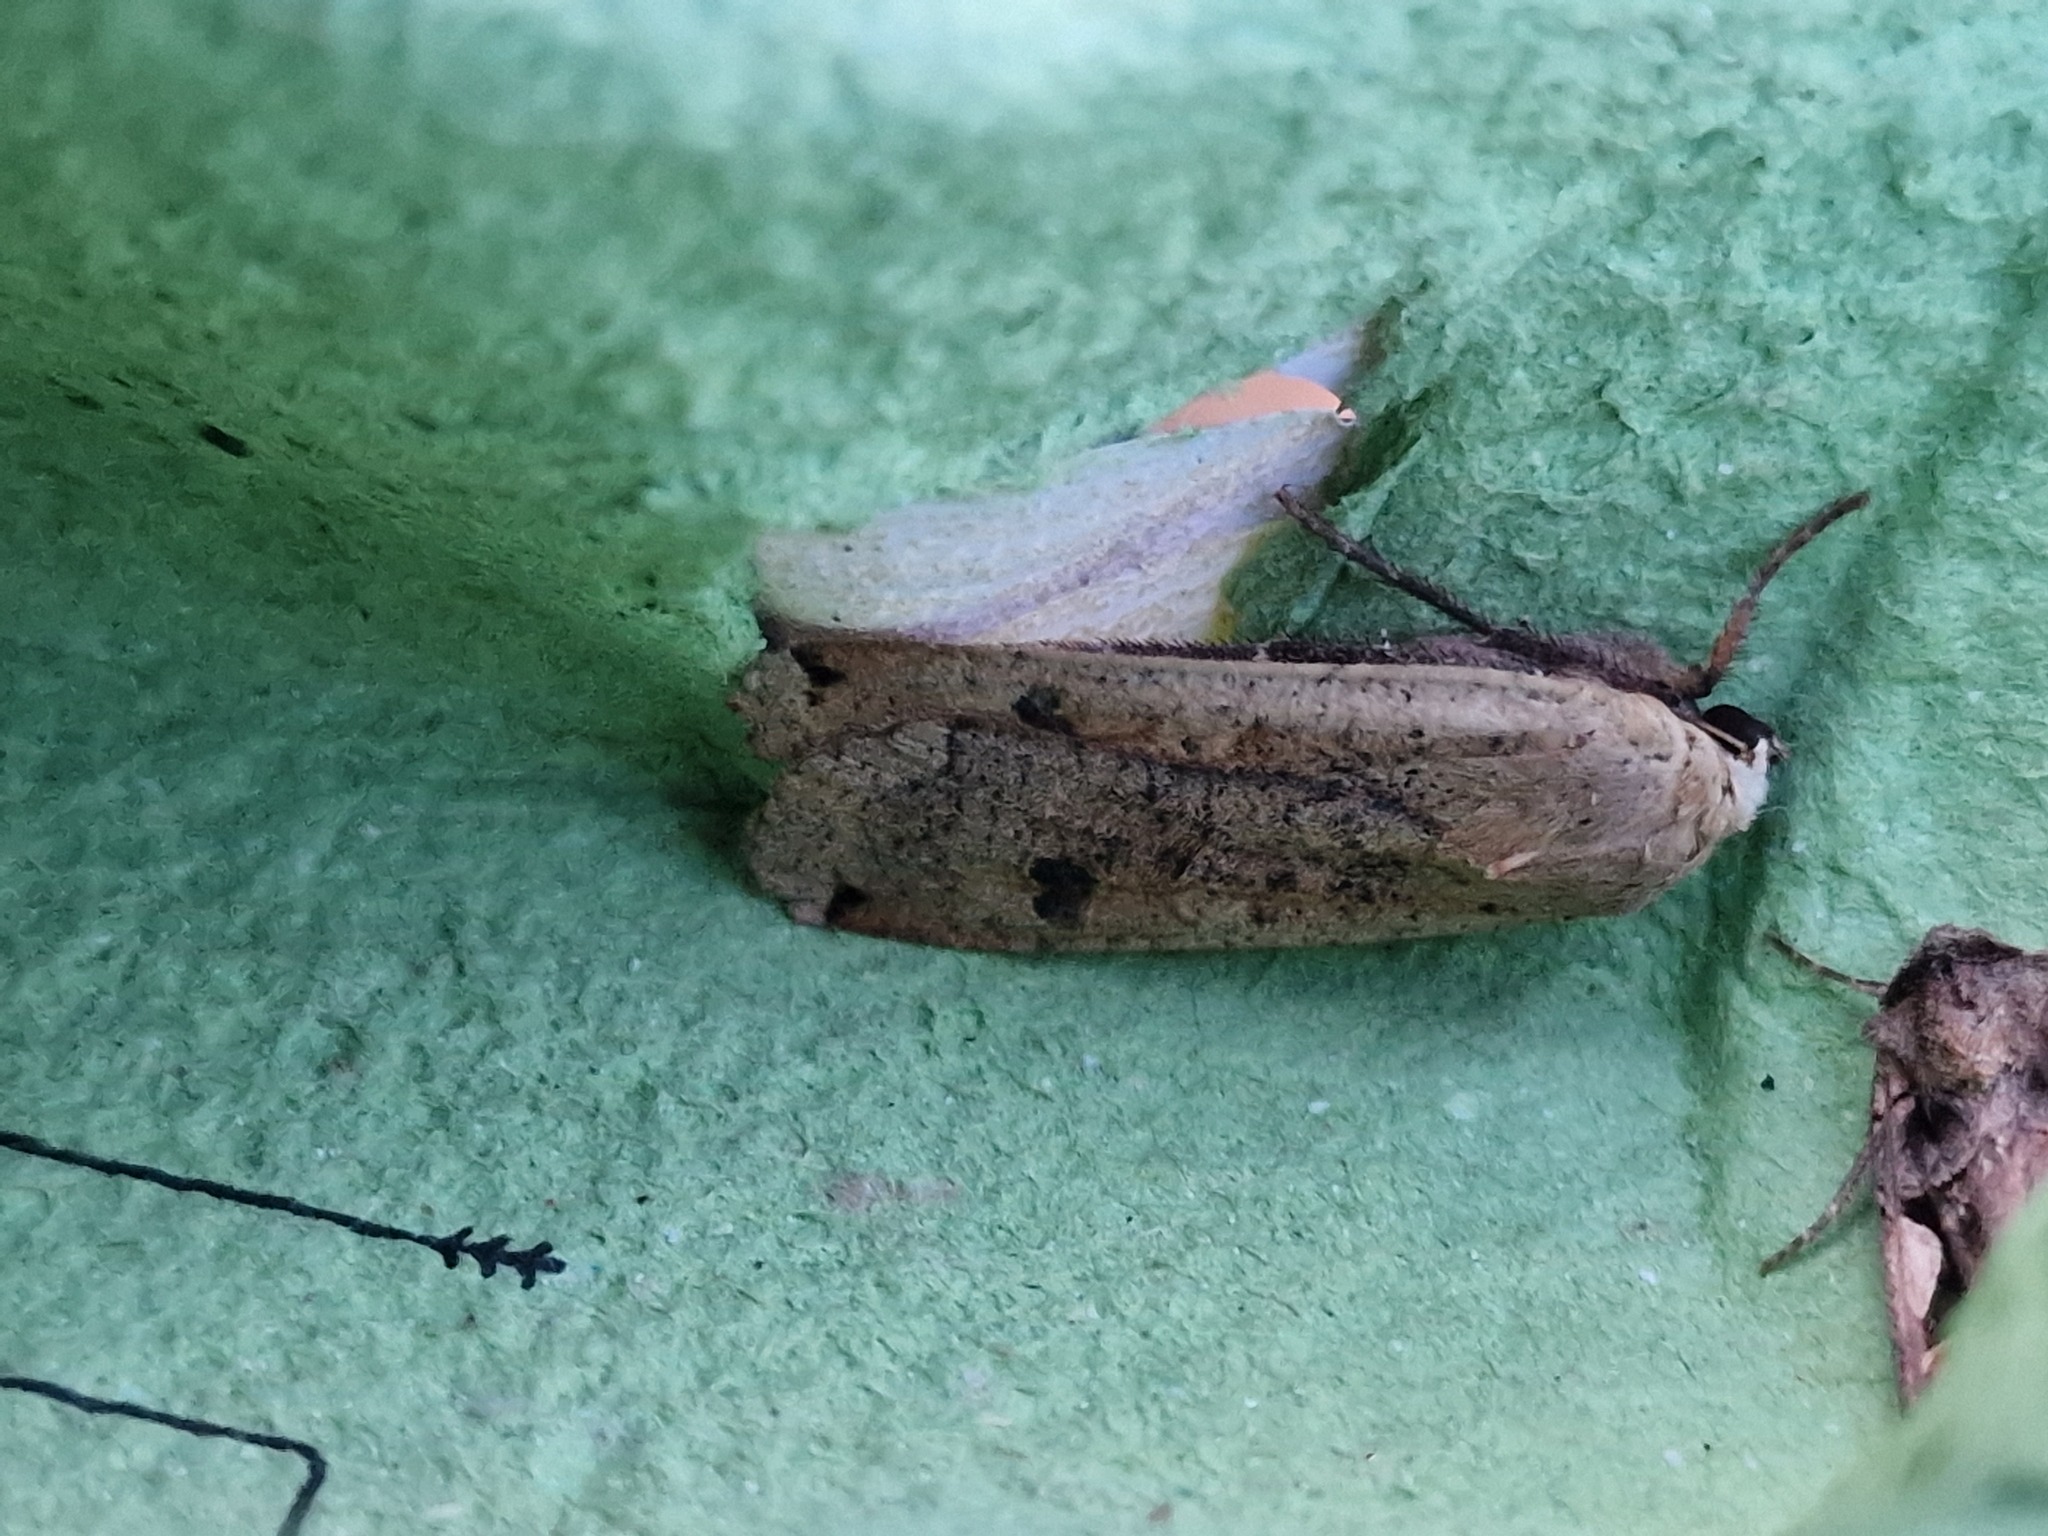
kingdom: Animalia
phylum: Arthropoda
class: Insecta
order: Lepidoptera
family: Noctuidae
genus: Noctua
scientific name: Noctua pronuba
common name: Large yellow underwing
